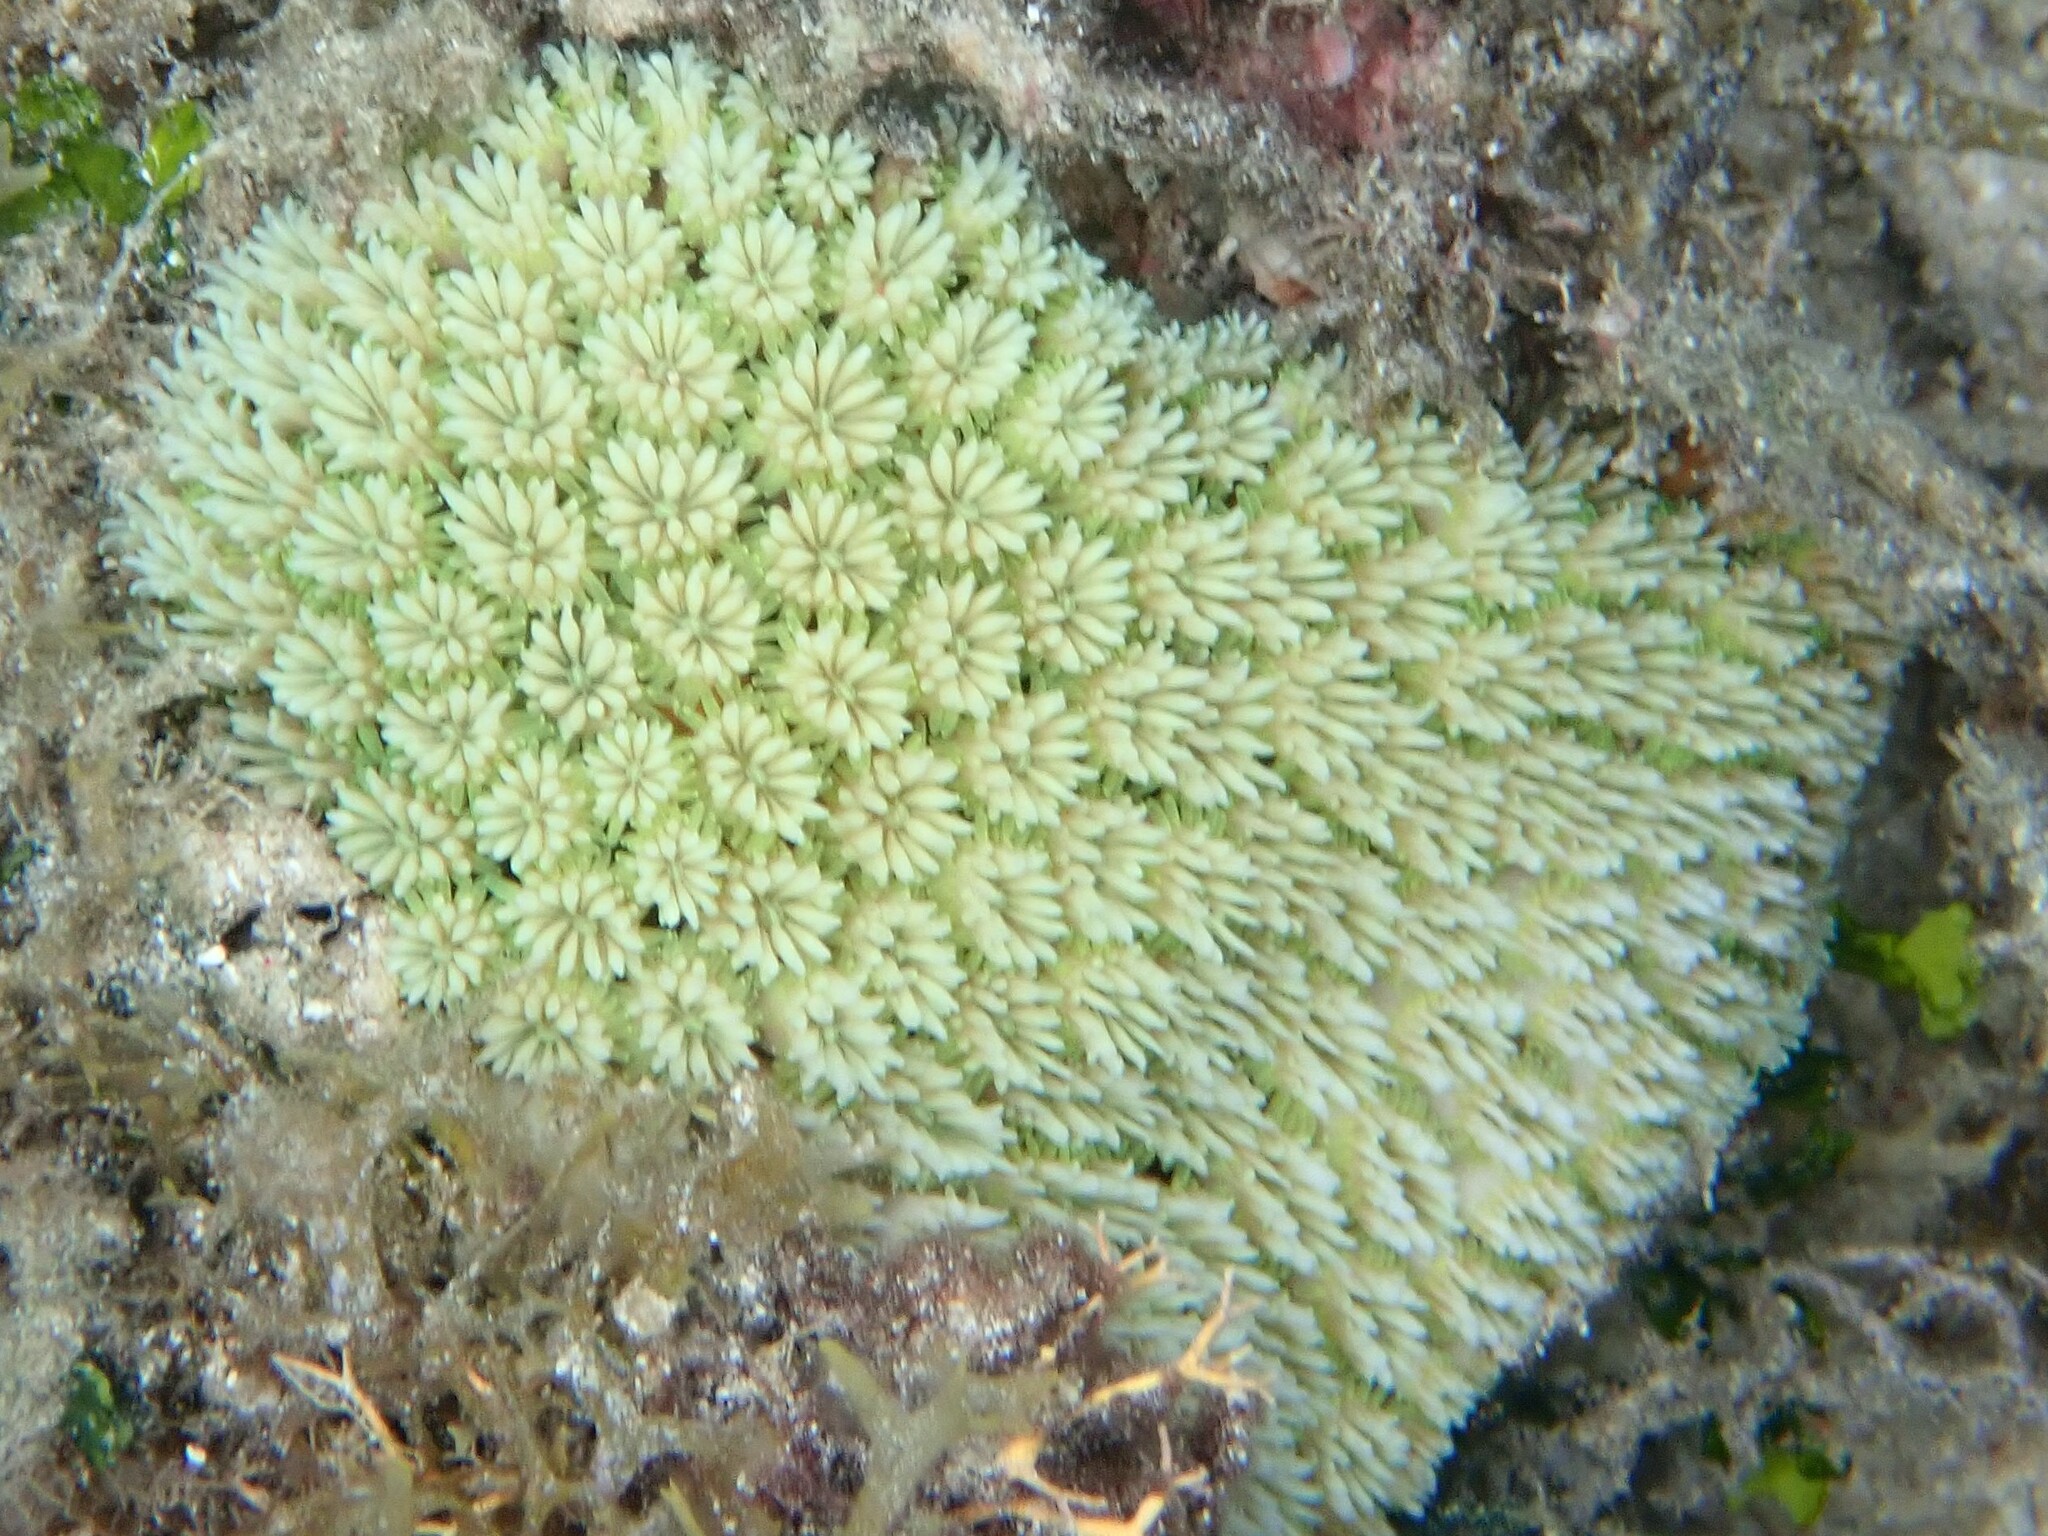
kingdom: Animalia
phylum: Cnidaria
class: Anthozoa
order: Scleractinia
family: Euphylliidae
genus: Galaxea
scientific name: Galaxea fascicularis
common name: Octopus coral
